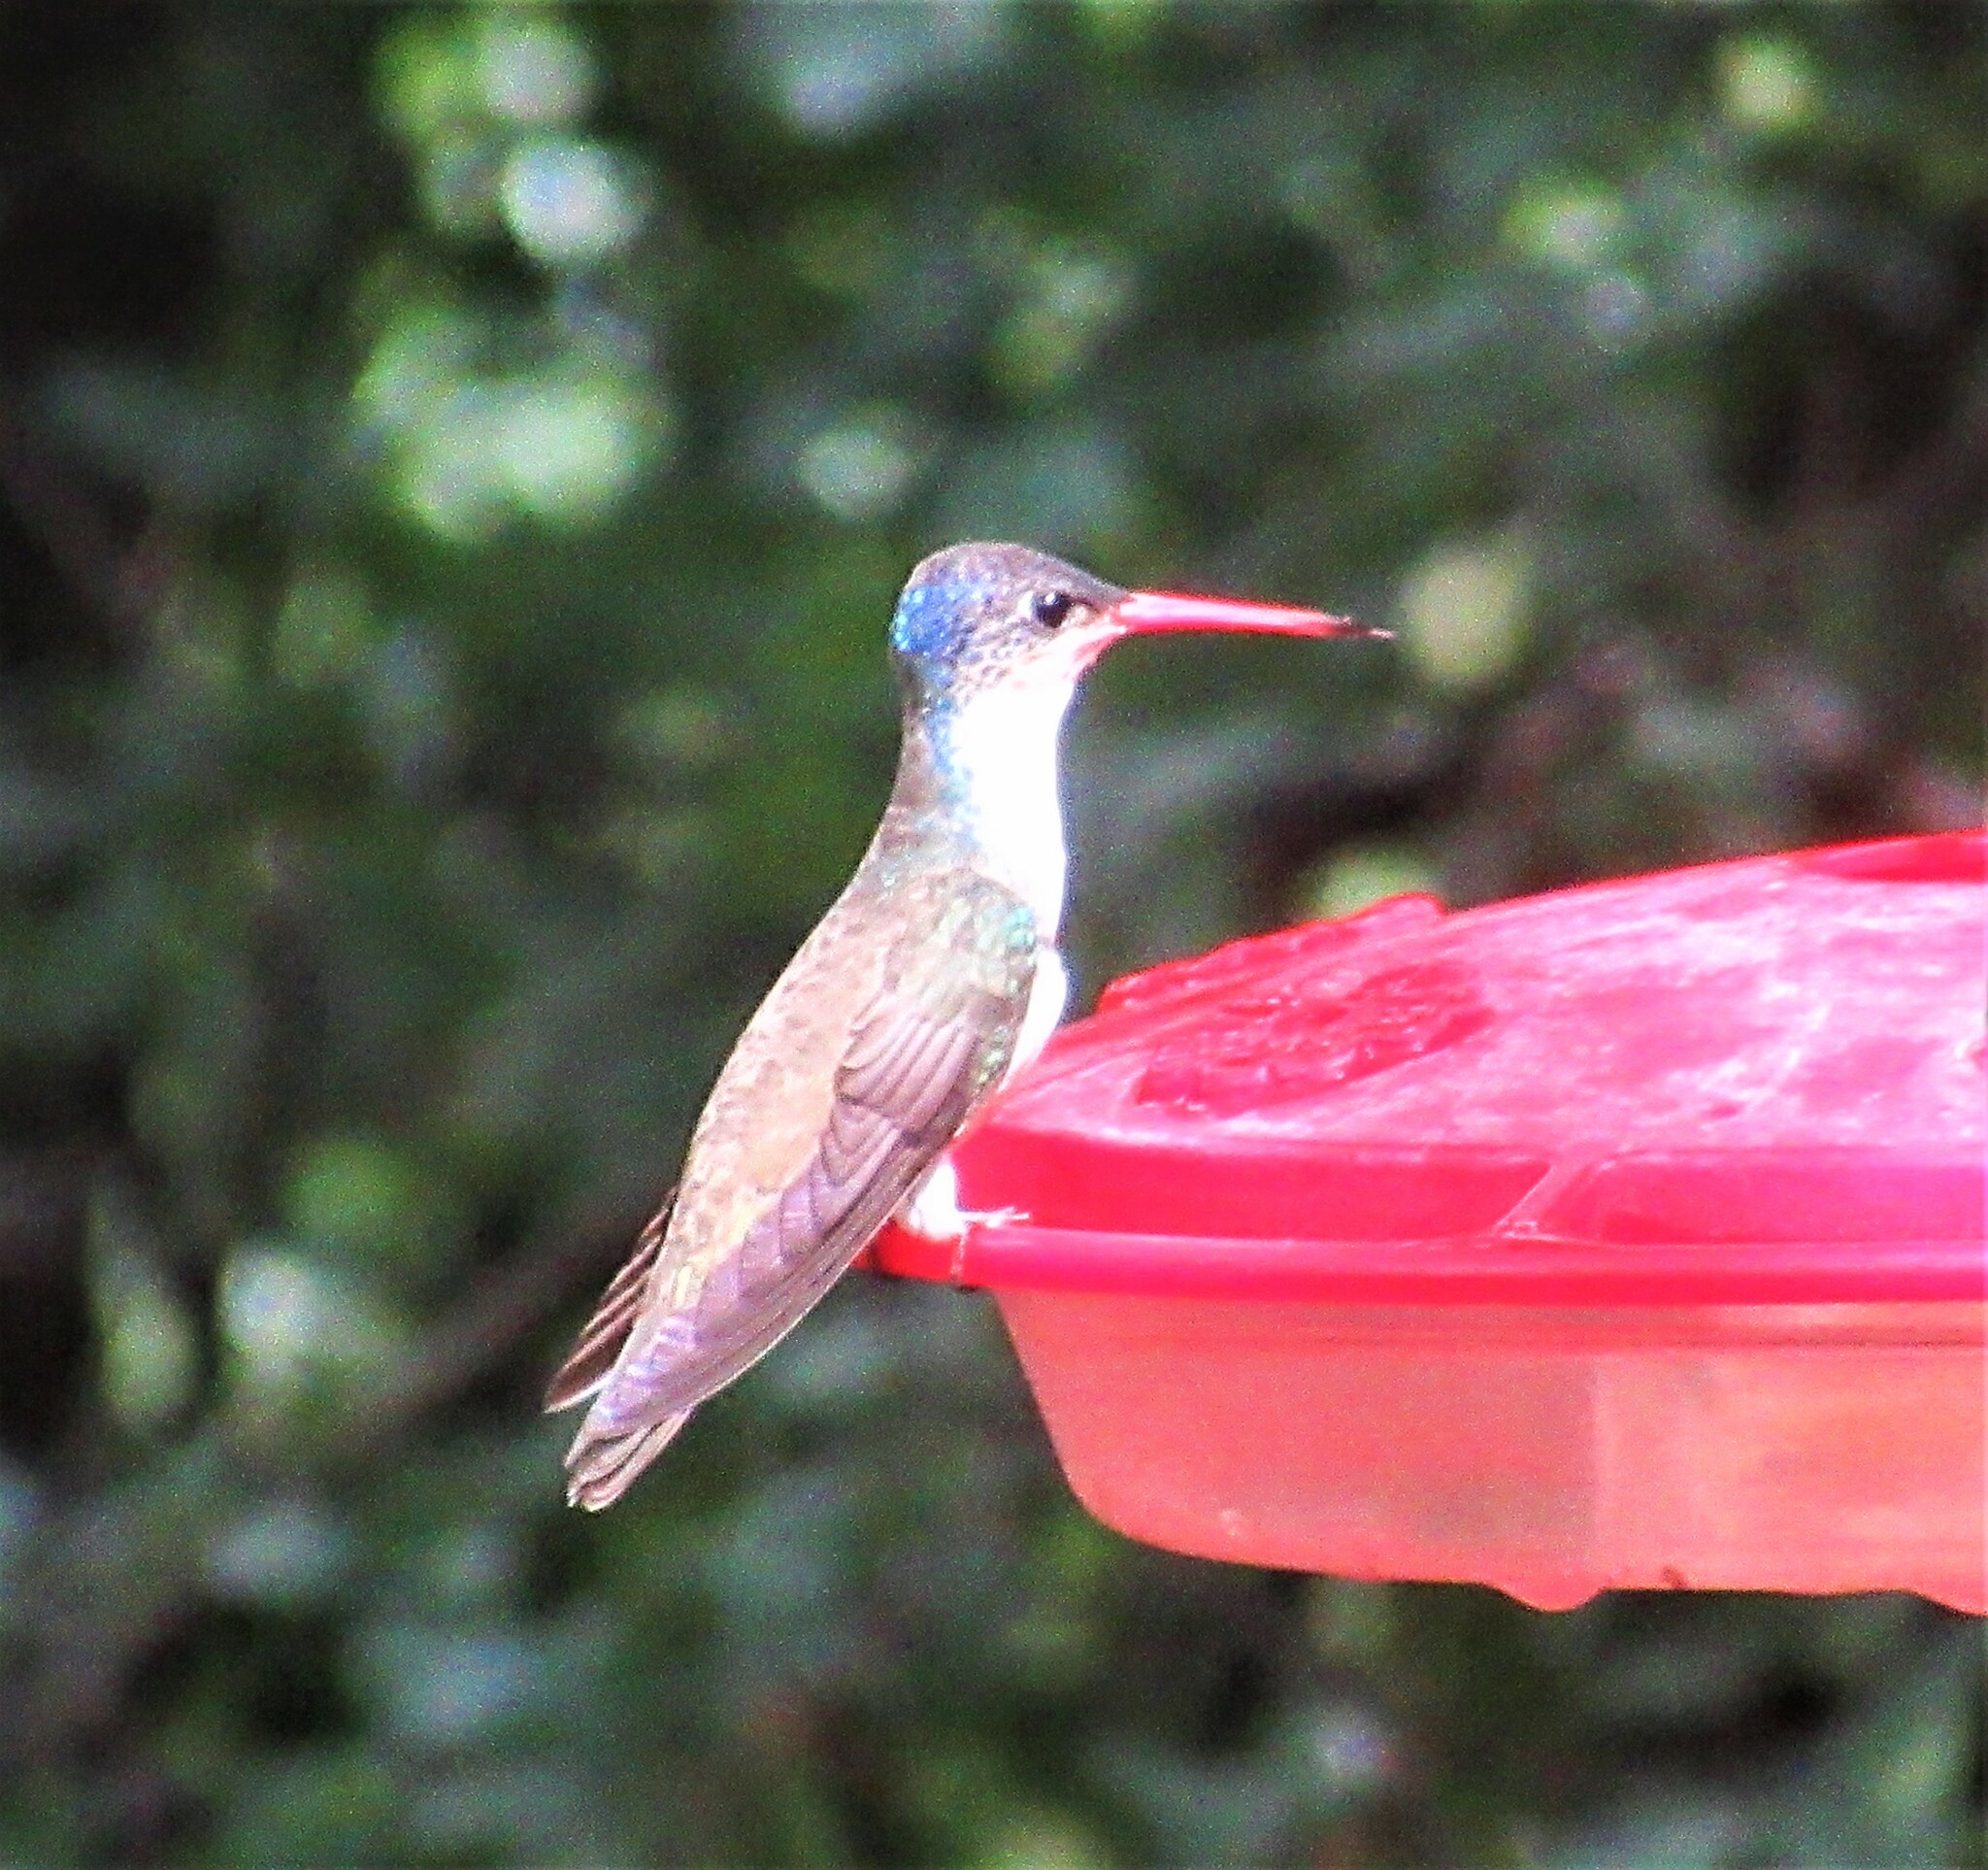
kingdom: Animalia
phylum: Chordata
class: Aves
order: Apodiformes
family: Trochilidae
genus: Leucolia
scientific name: Leucolia violiceps
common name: Violet-crowned hummingbird
